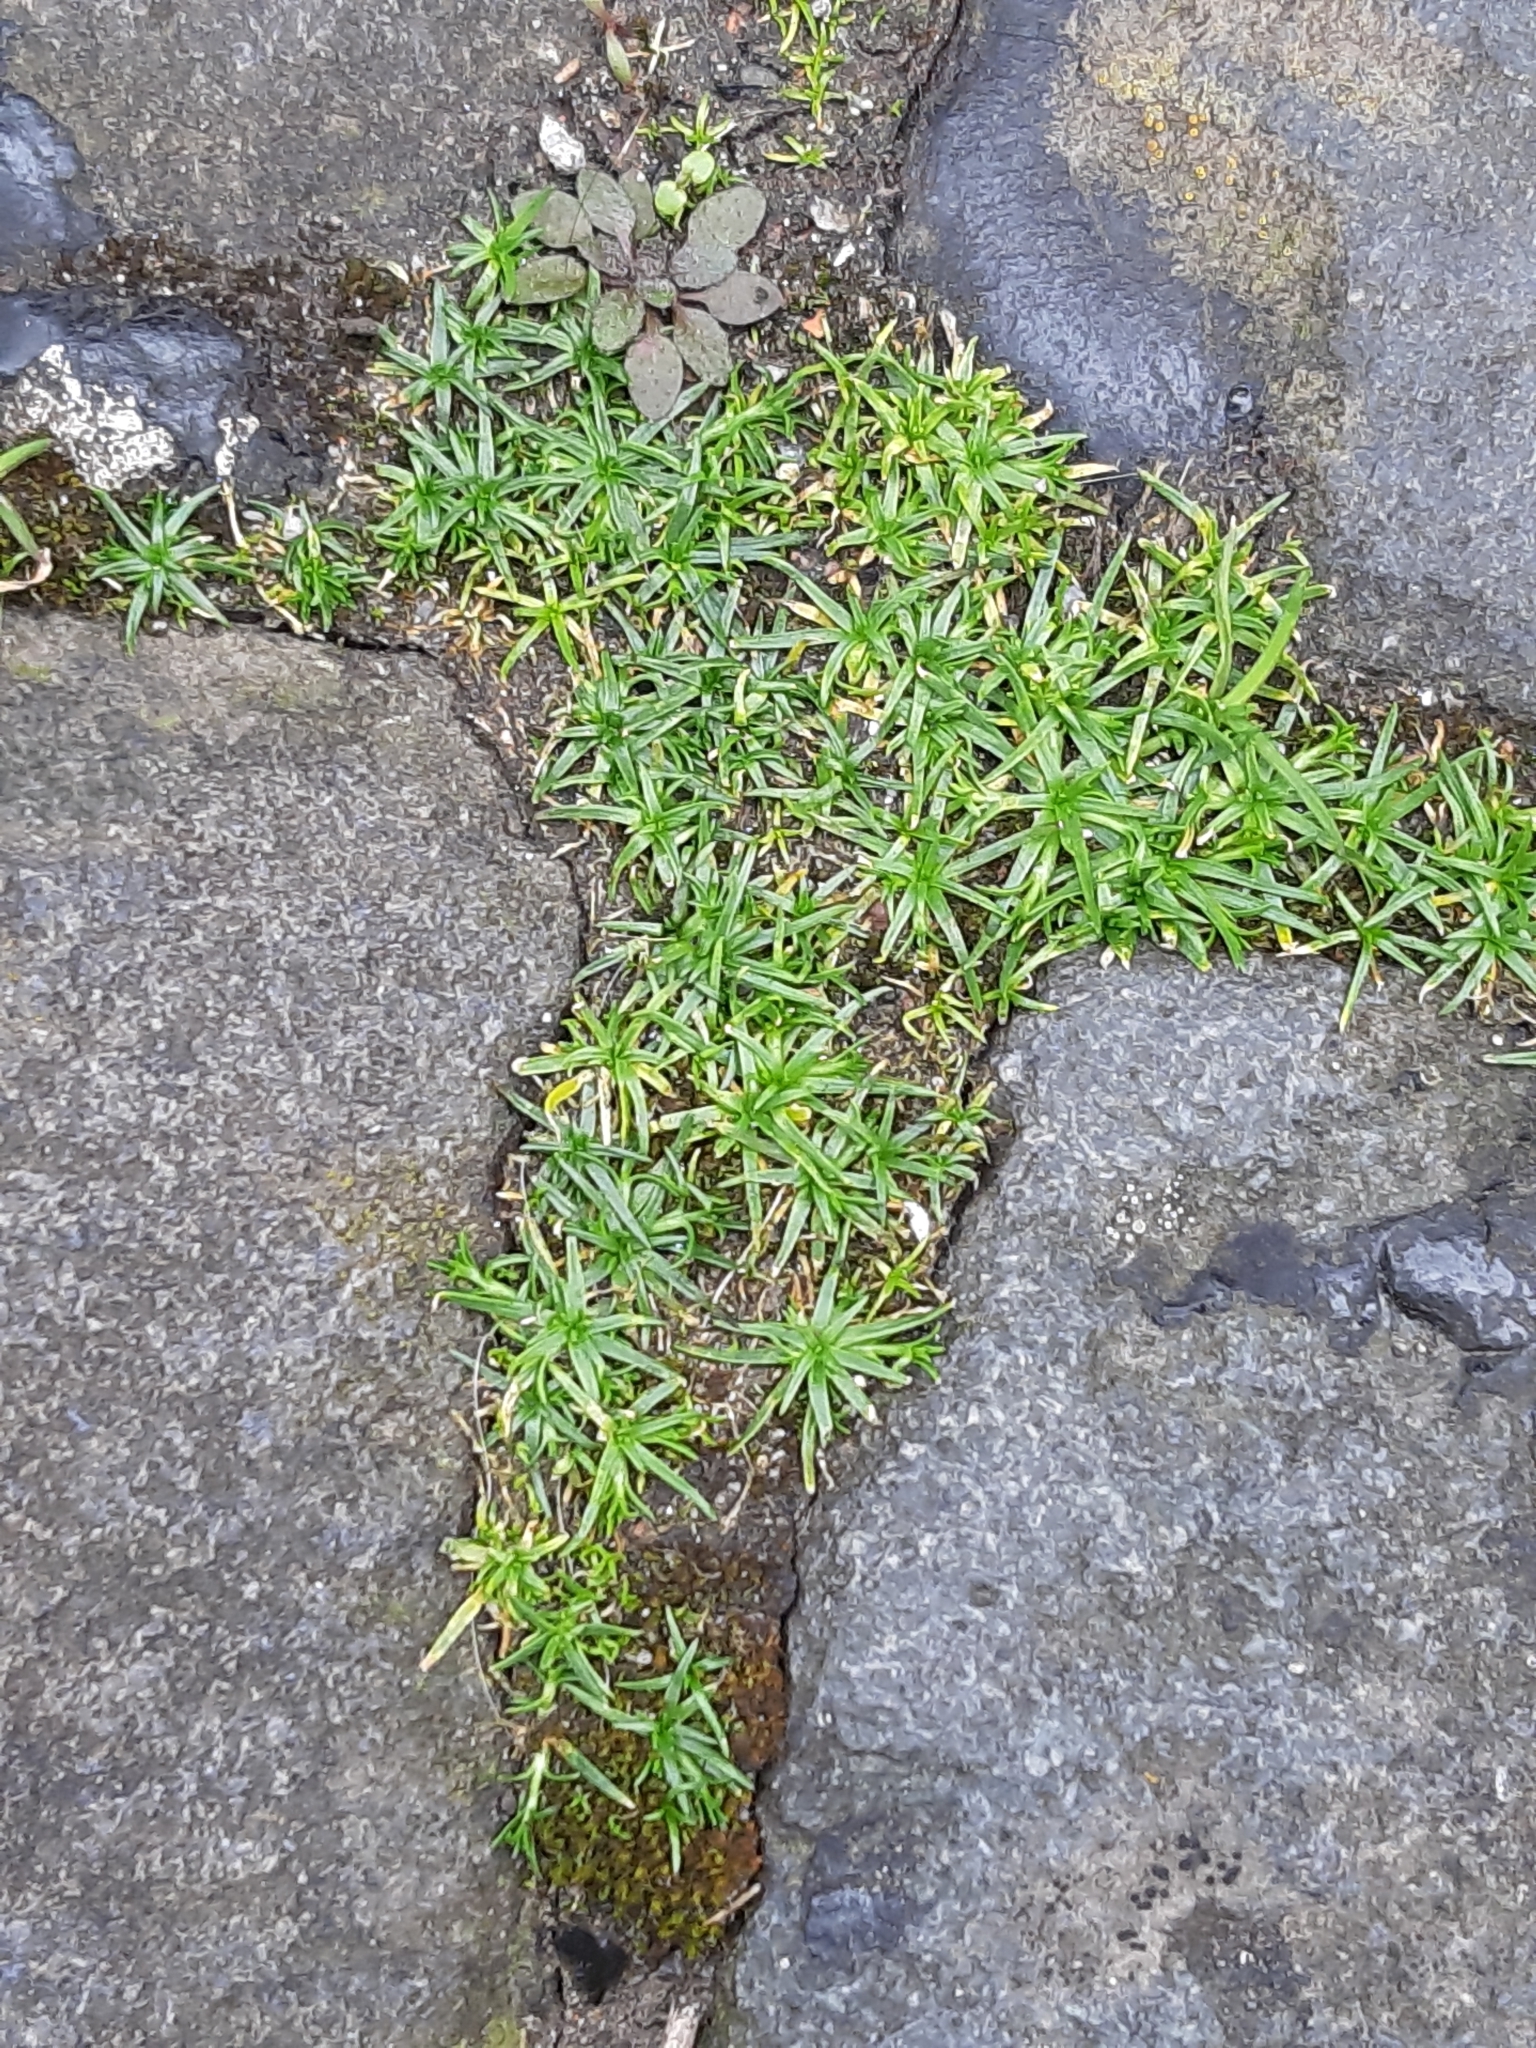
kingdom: Plantae
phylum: Tracheophyta
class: Magnoliopsida
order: Caryophyllales
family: Caryophyllaceae
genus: Sagina
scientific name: Sagina procumbens
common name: Procumbent pearlwort
